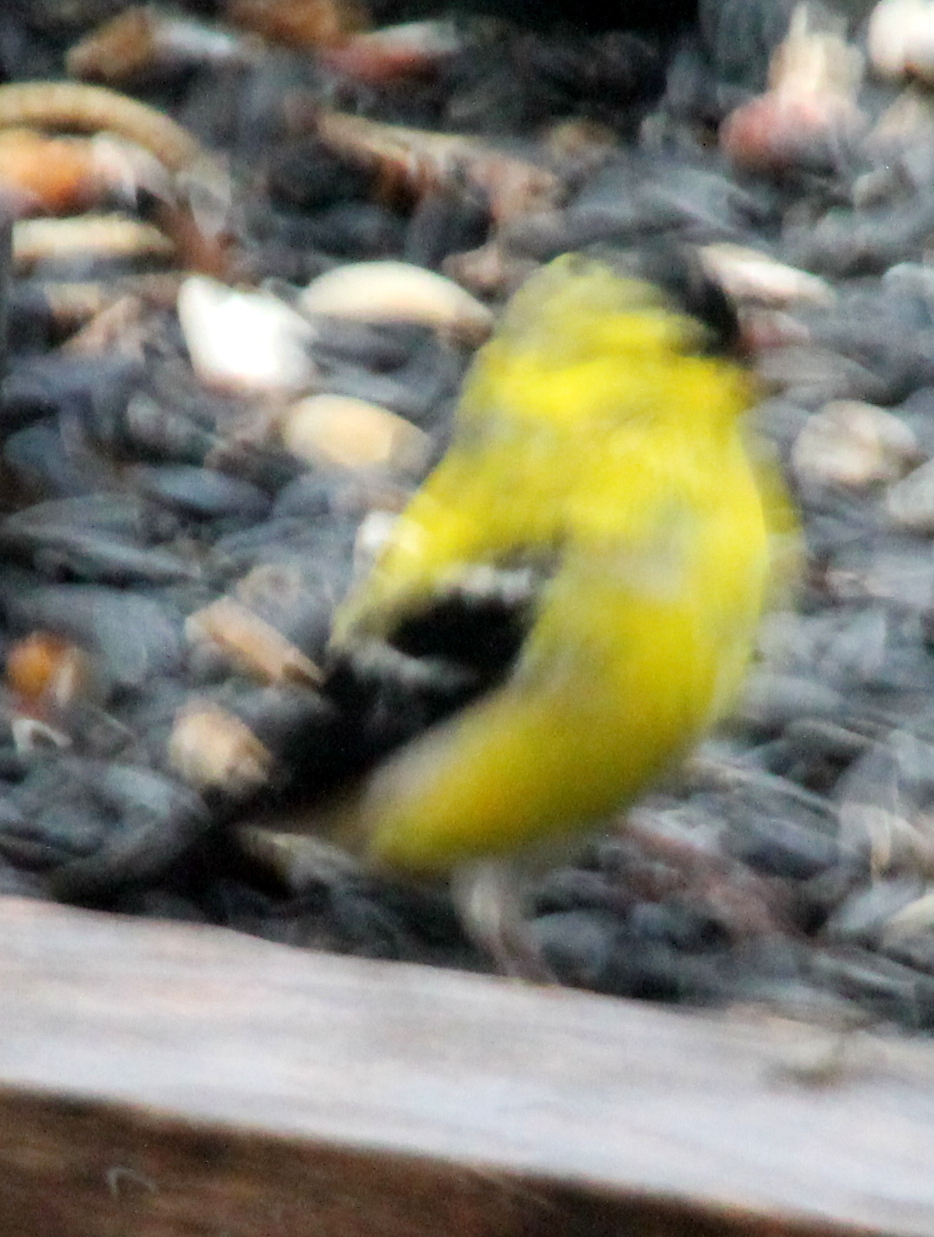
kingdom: Animalia
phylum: Chordata
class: Aves
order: Passeriformes
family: Fringillidae
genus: Spinus
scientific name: Spinus tristis
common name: American goldfinch
